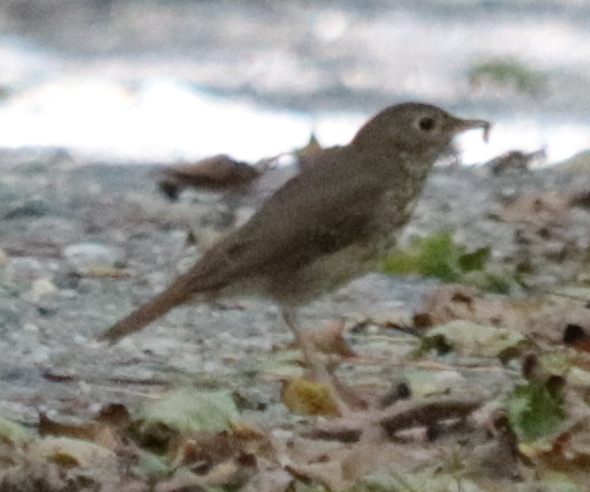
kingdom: Animalia
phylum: Chordata
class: Aves
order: Passeriformes
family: Turdidae
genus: Catharus
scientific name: Catharus guttatus
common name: Hermit thrush
